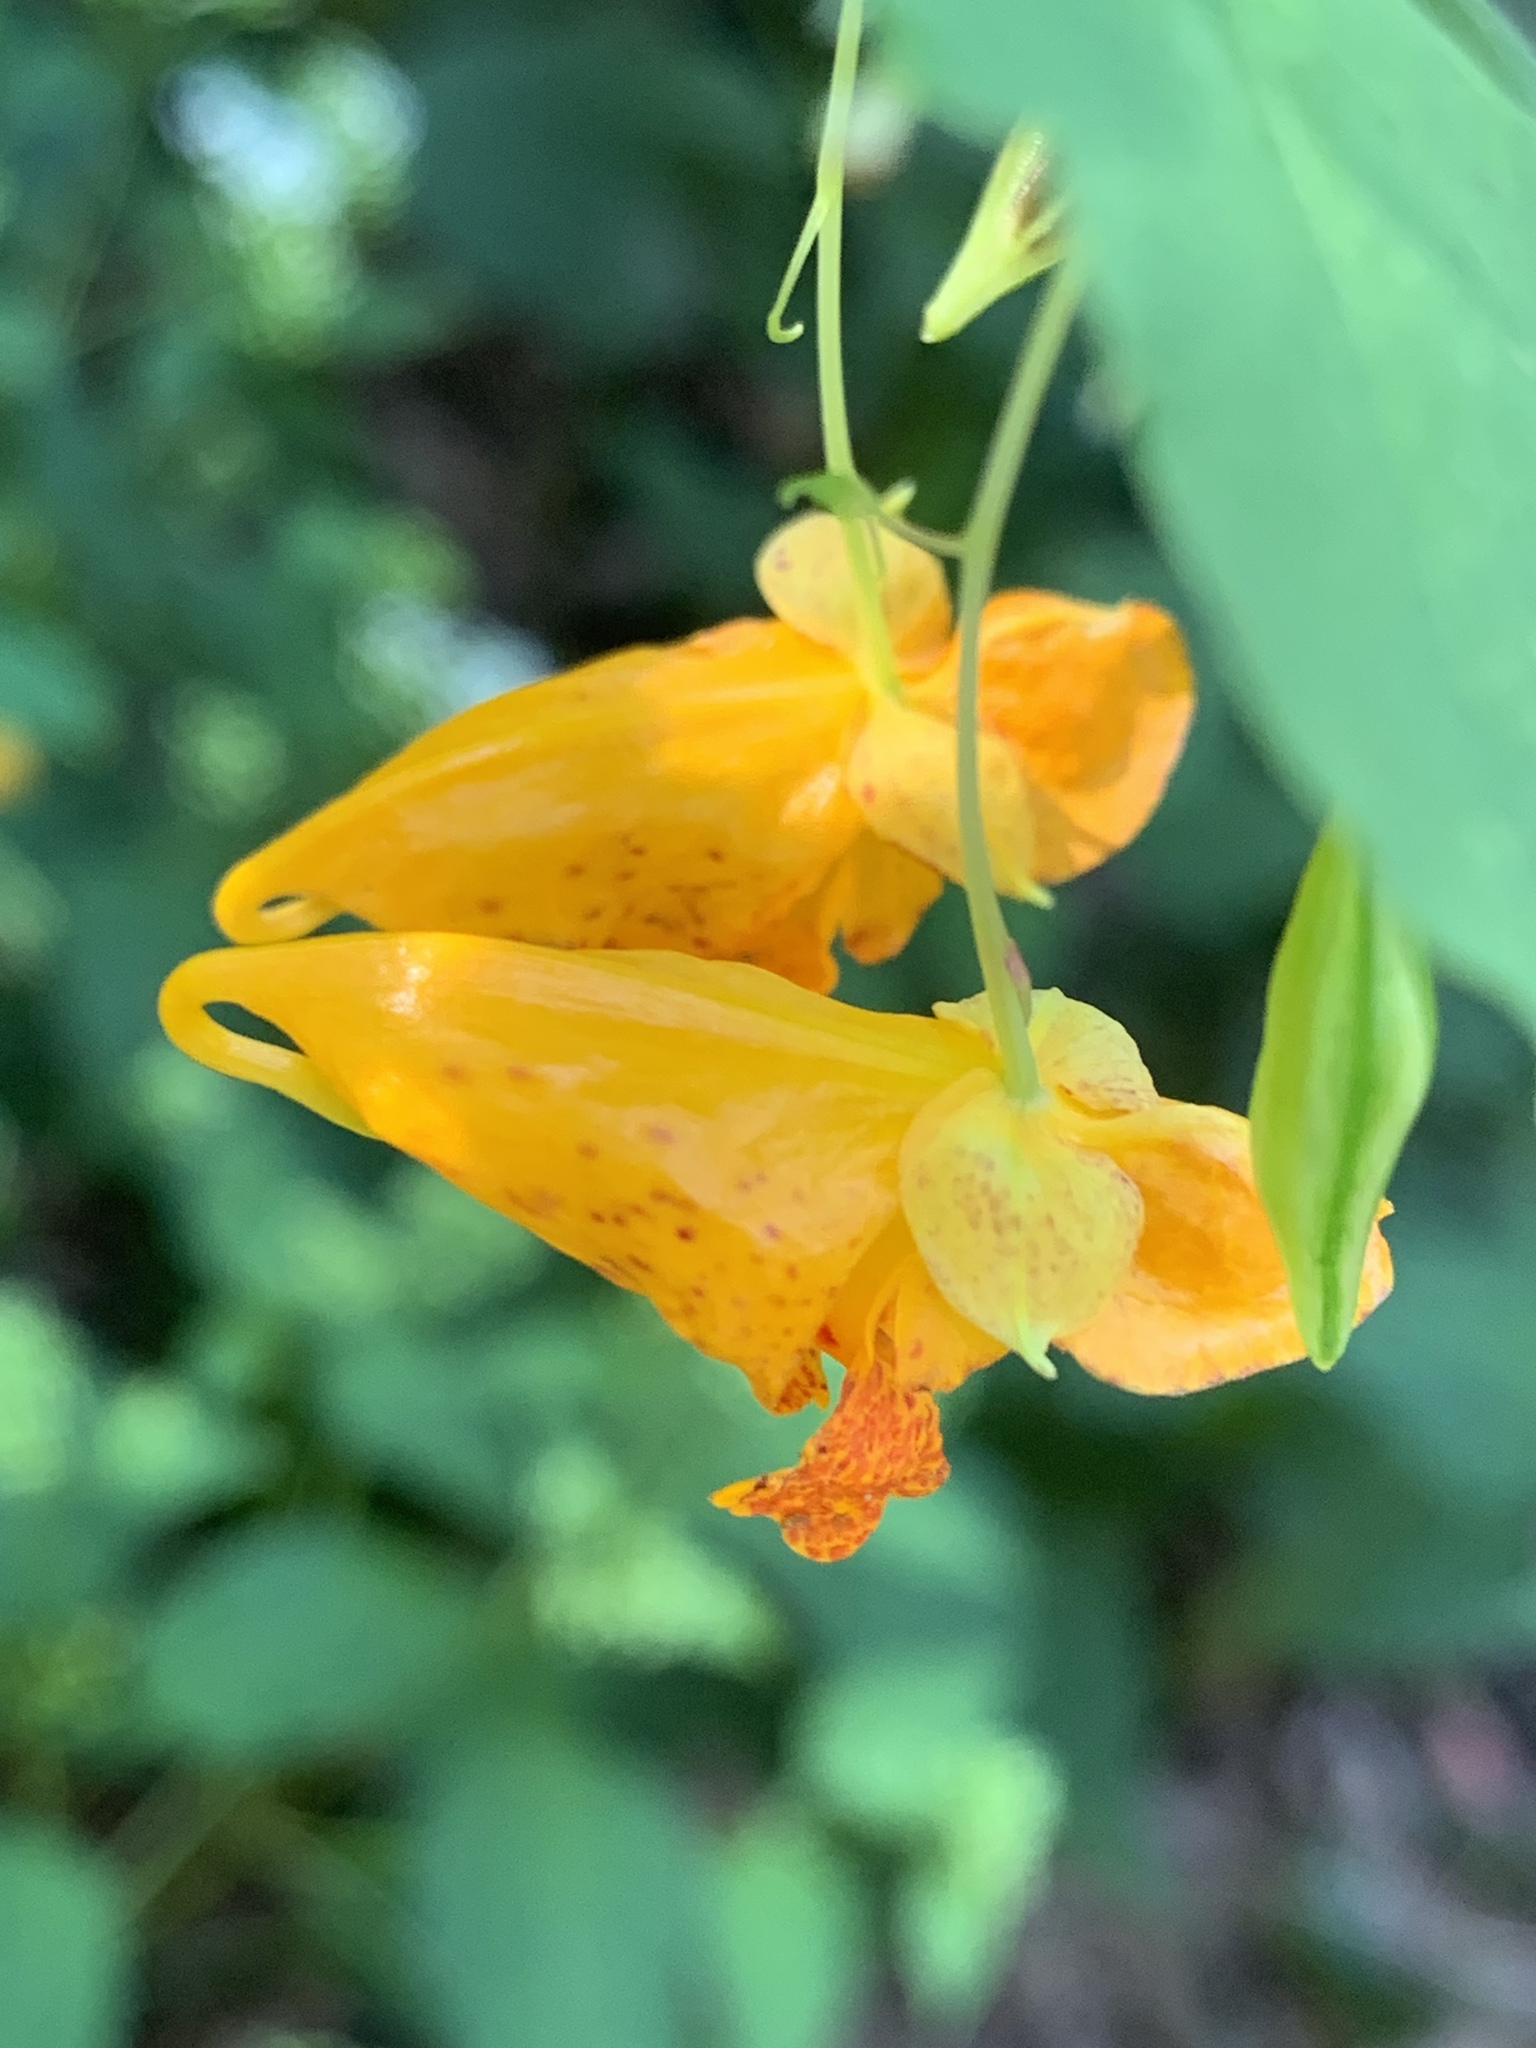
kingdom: Plantae
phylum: Tracheophyta
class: Magnoliopsida
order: Ericales
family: Balsaminaceae
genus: Impatiens
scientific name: Impatiens capensis
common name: Orange balsam
